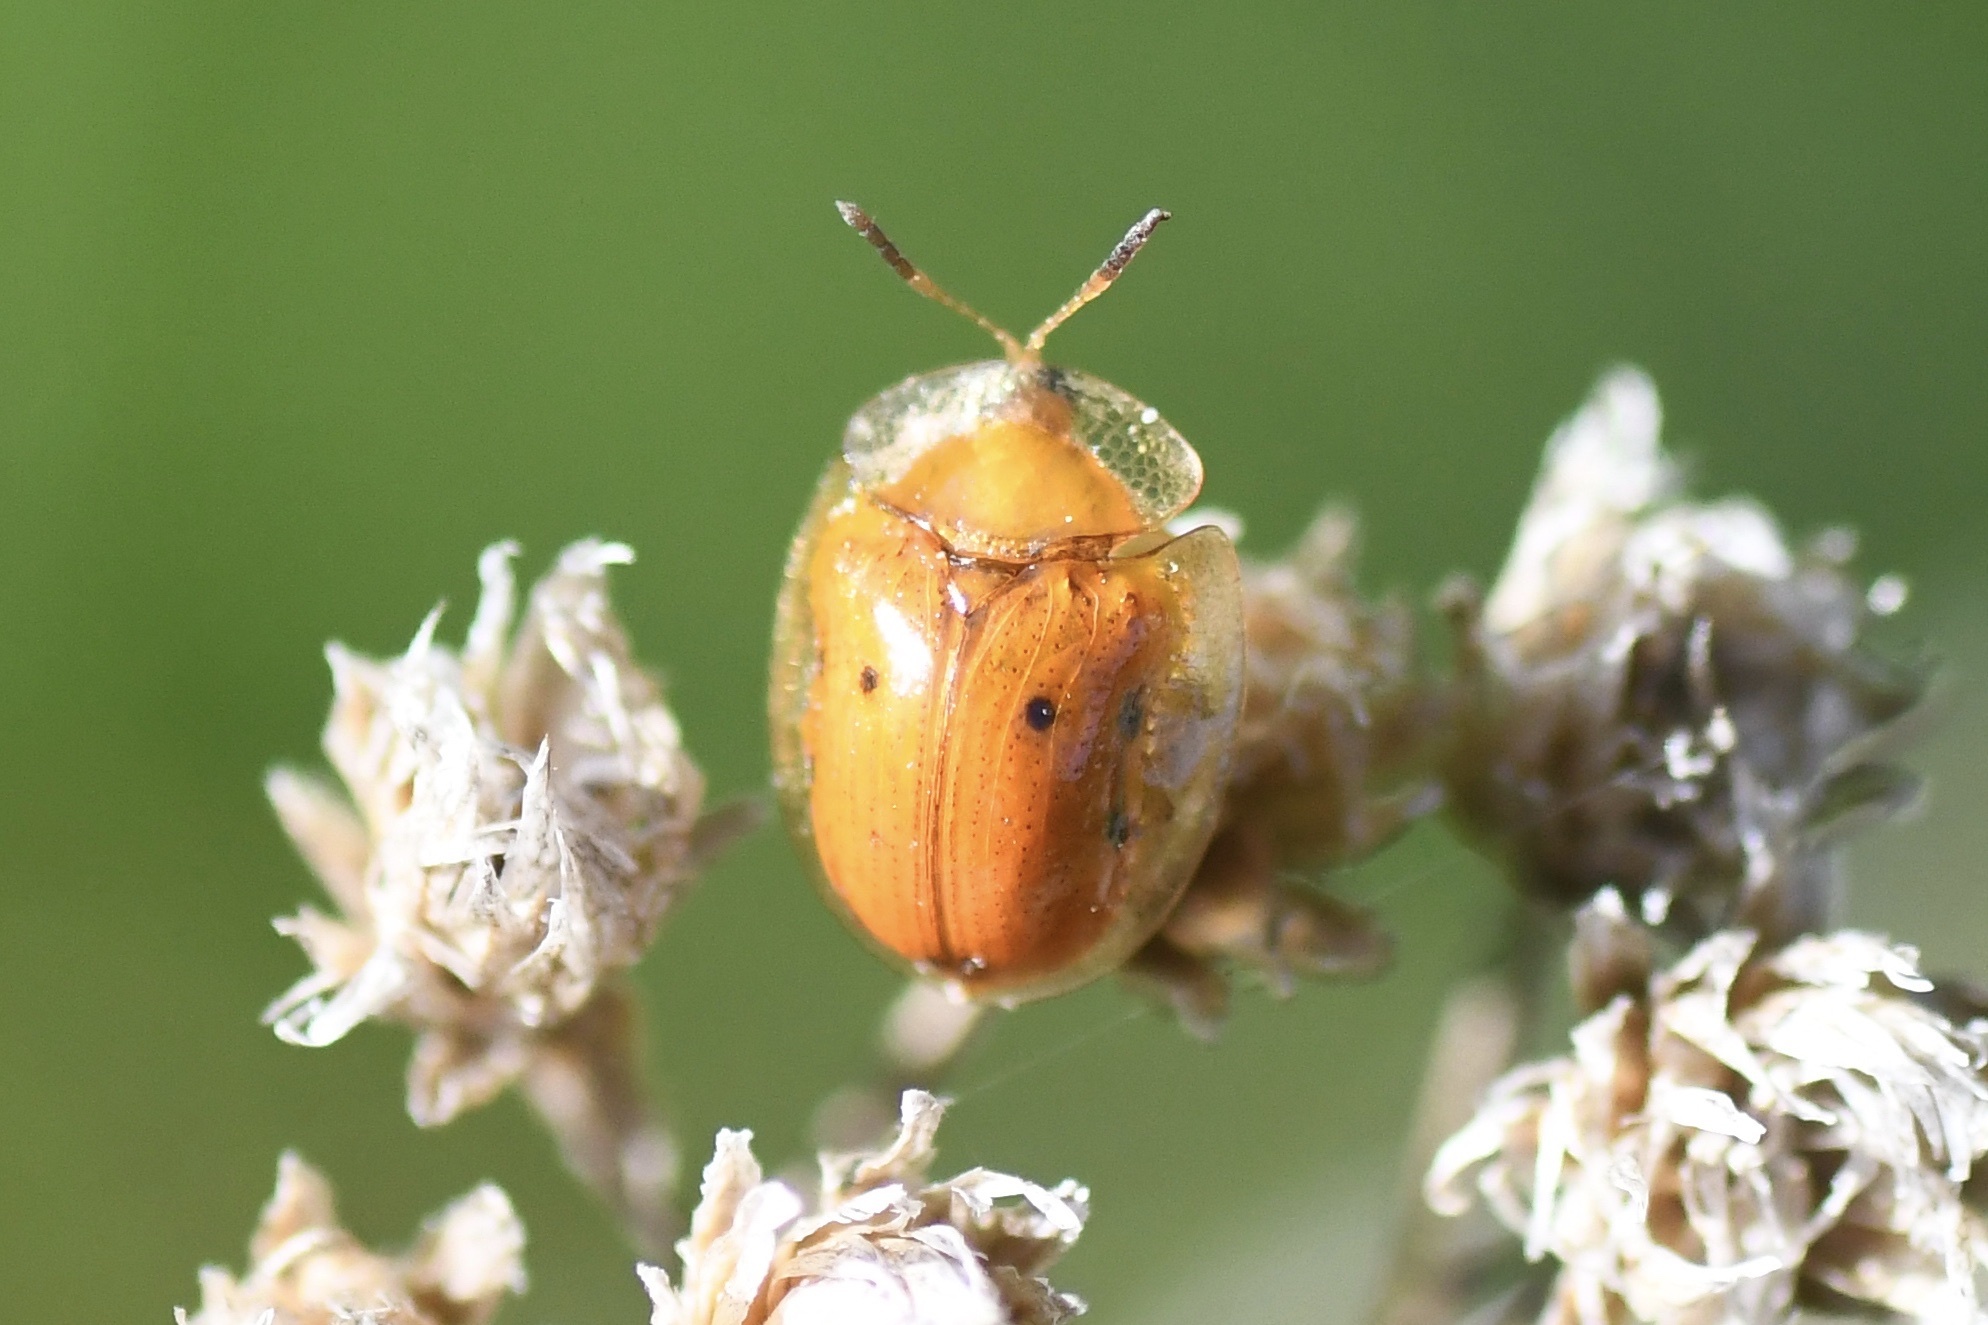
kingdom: Animalia
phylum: Arthropoda
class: Insecta
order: Coleoptera
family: Chrysomelidae
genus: Charidotella
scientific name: Charidotella sexpunctata
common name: Golden tortoise beetle
